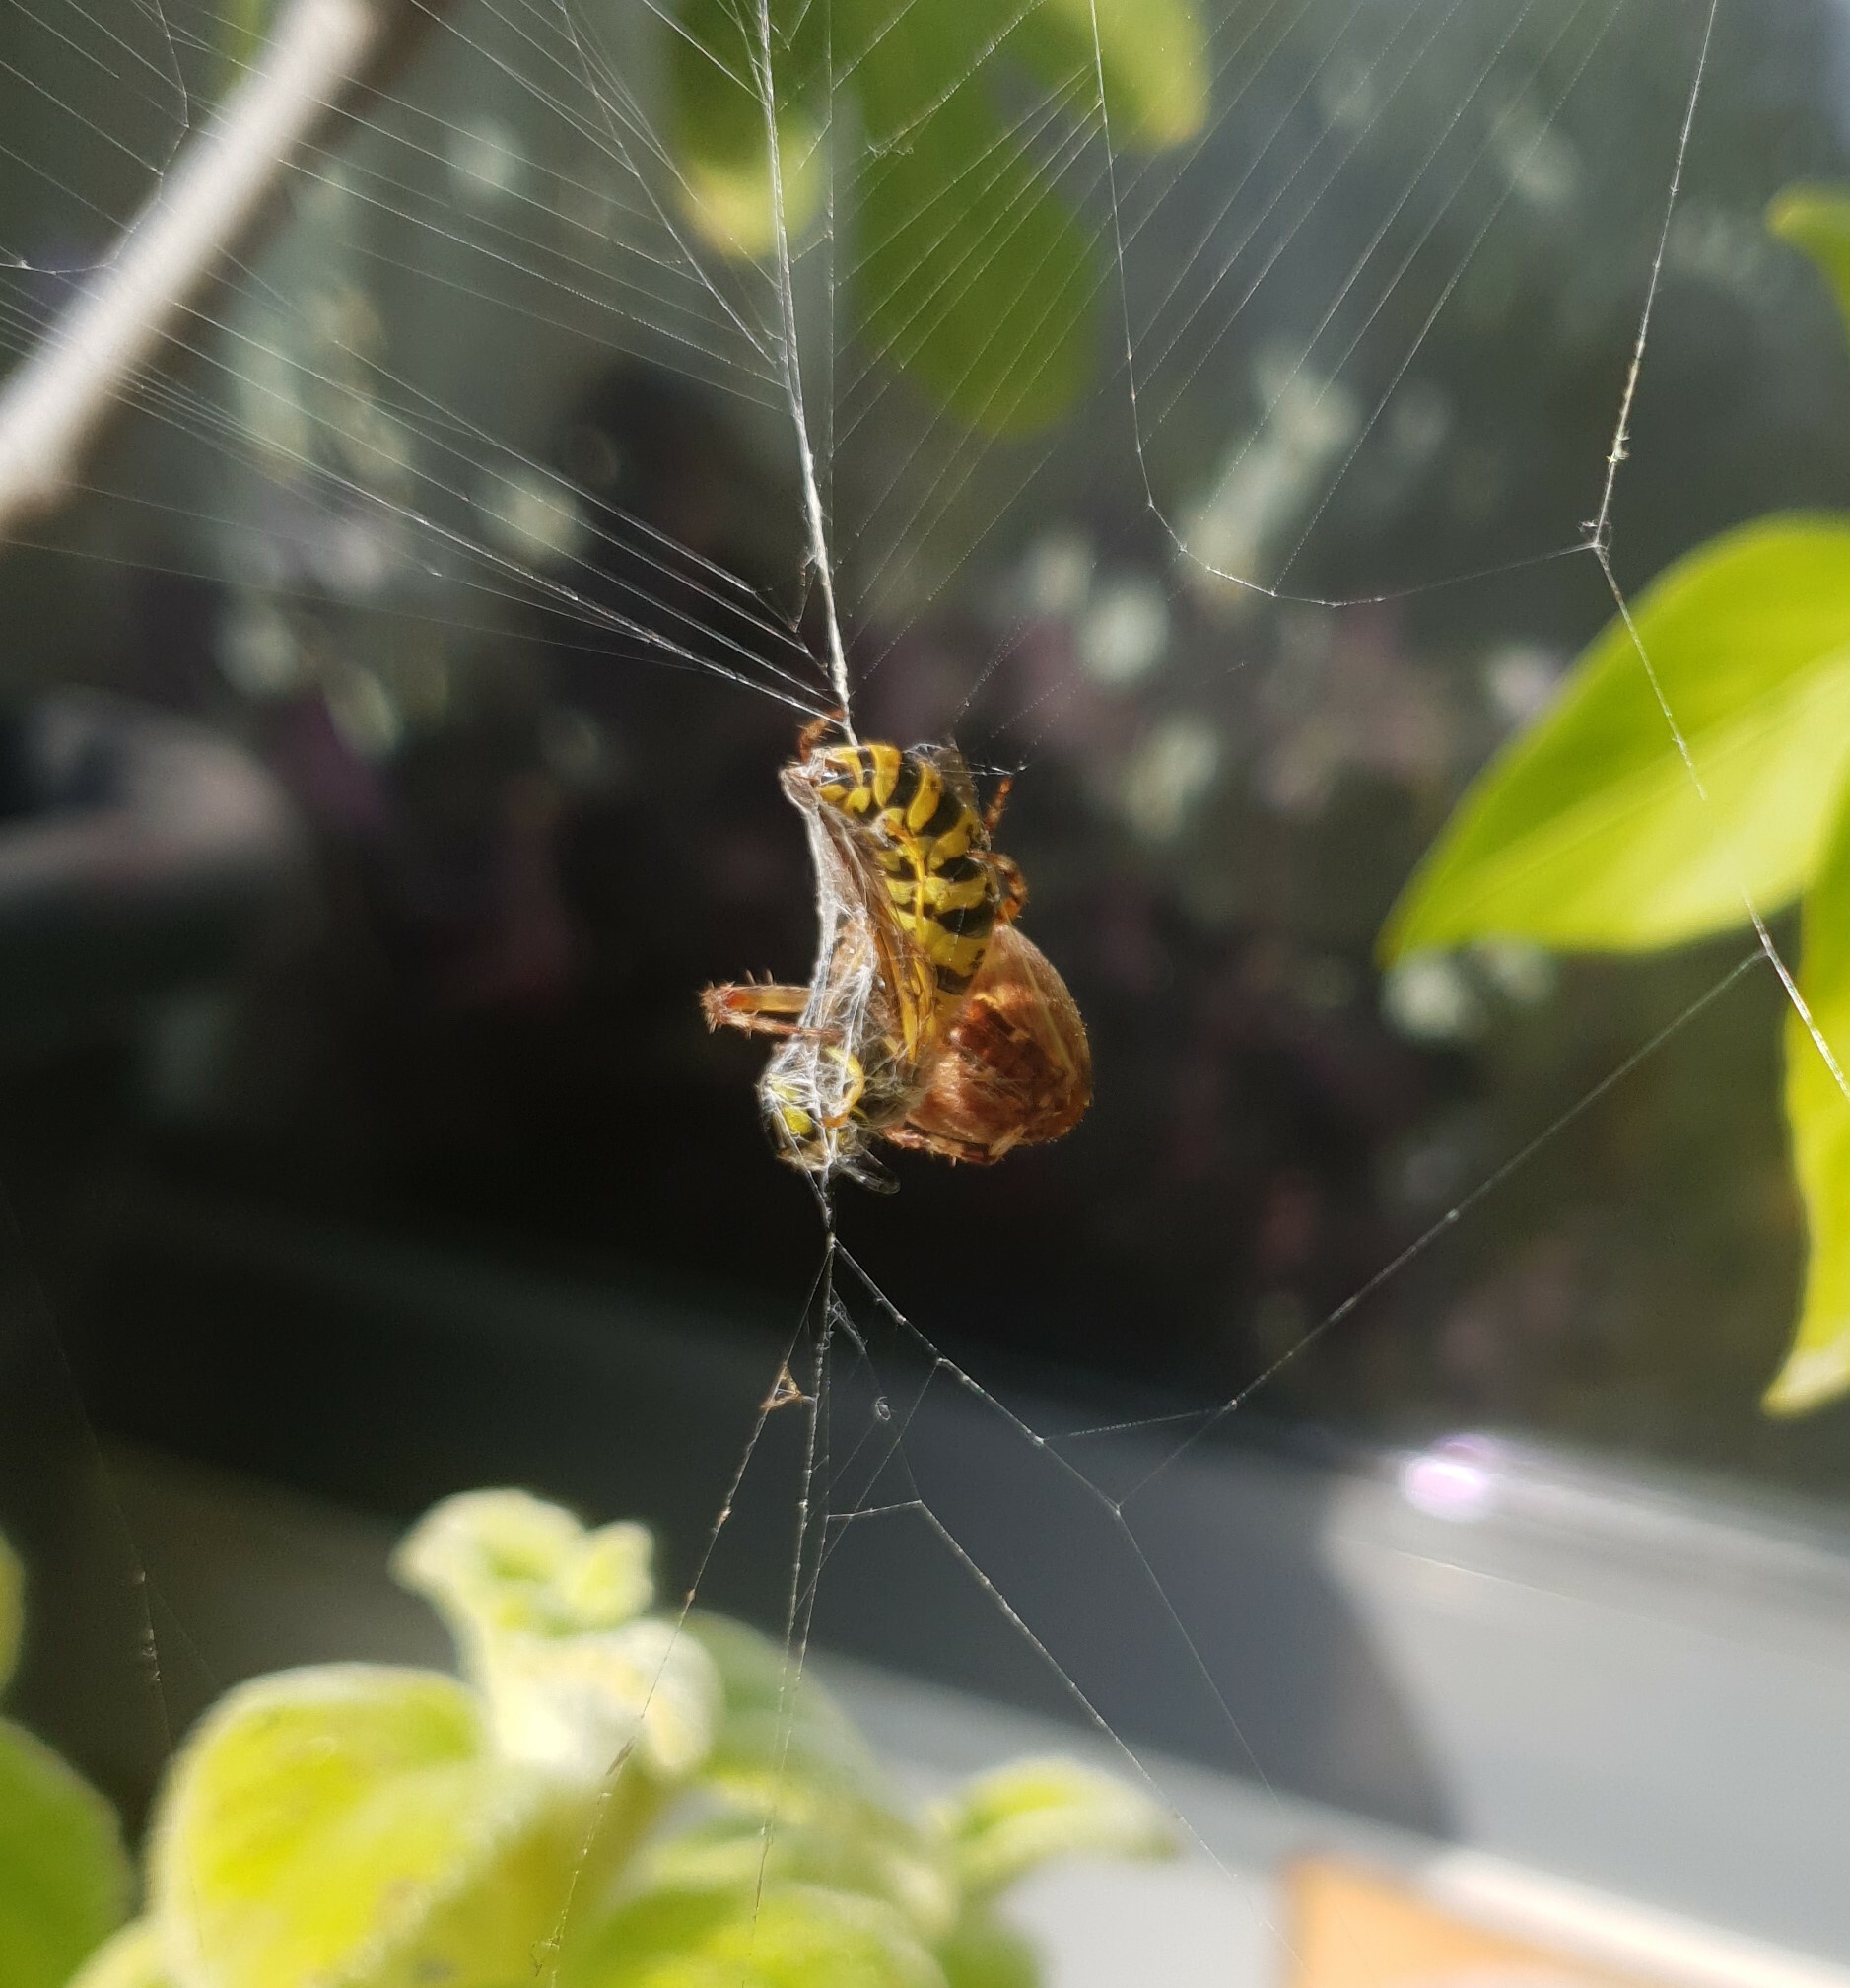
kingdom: Animalia
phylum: Arthropoda
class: Insecta
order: Hymenoptera
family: Vespidae
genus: Vespula
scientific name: Vespula
